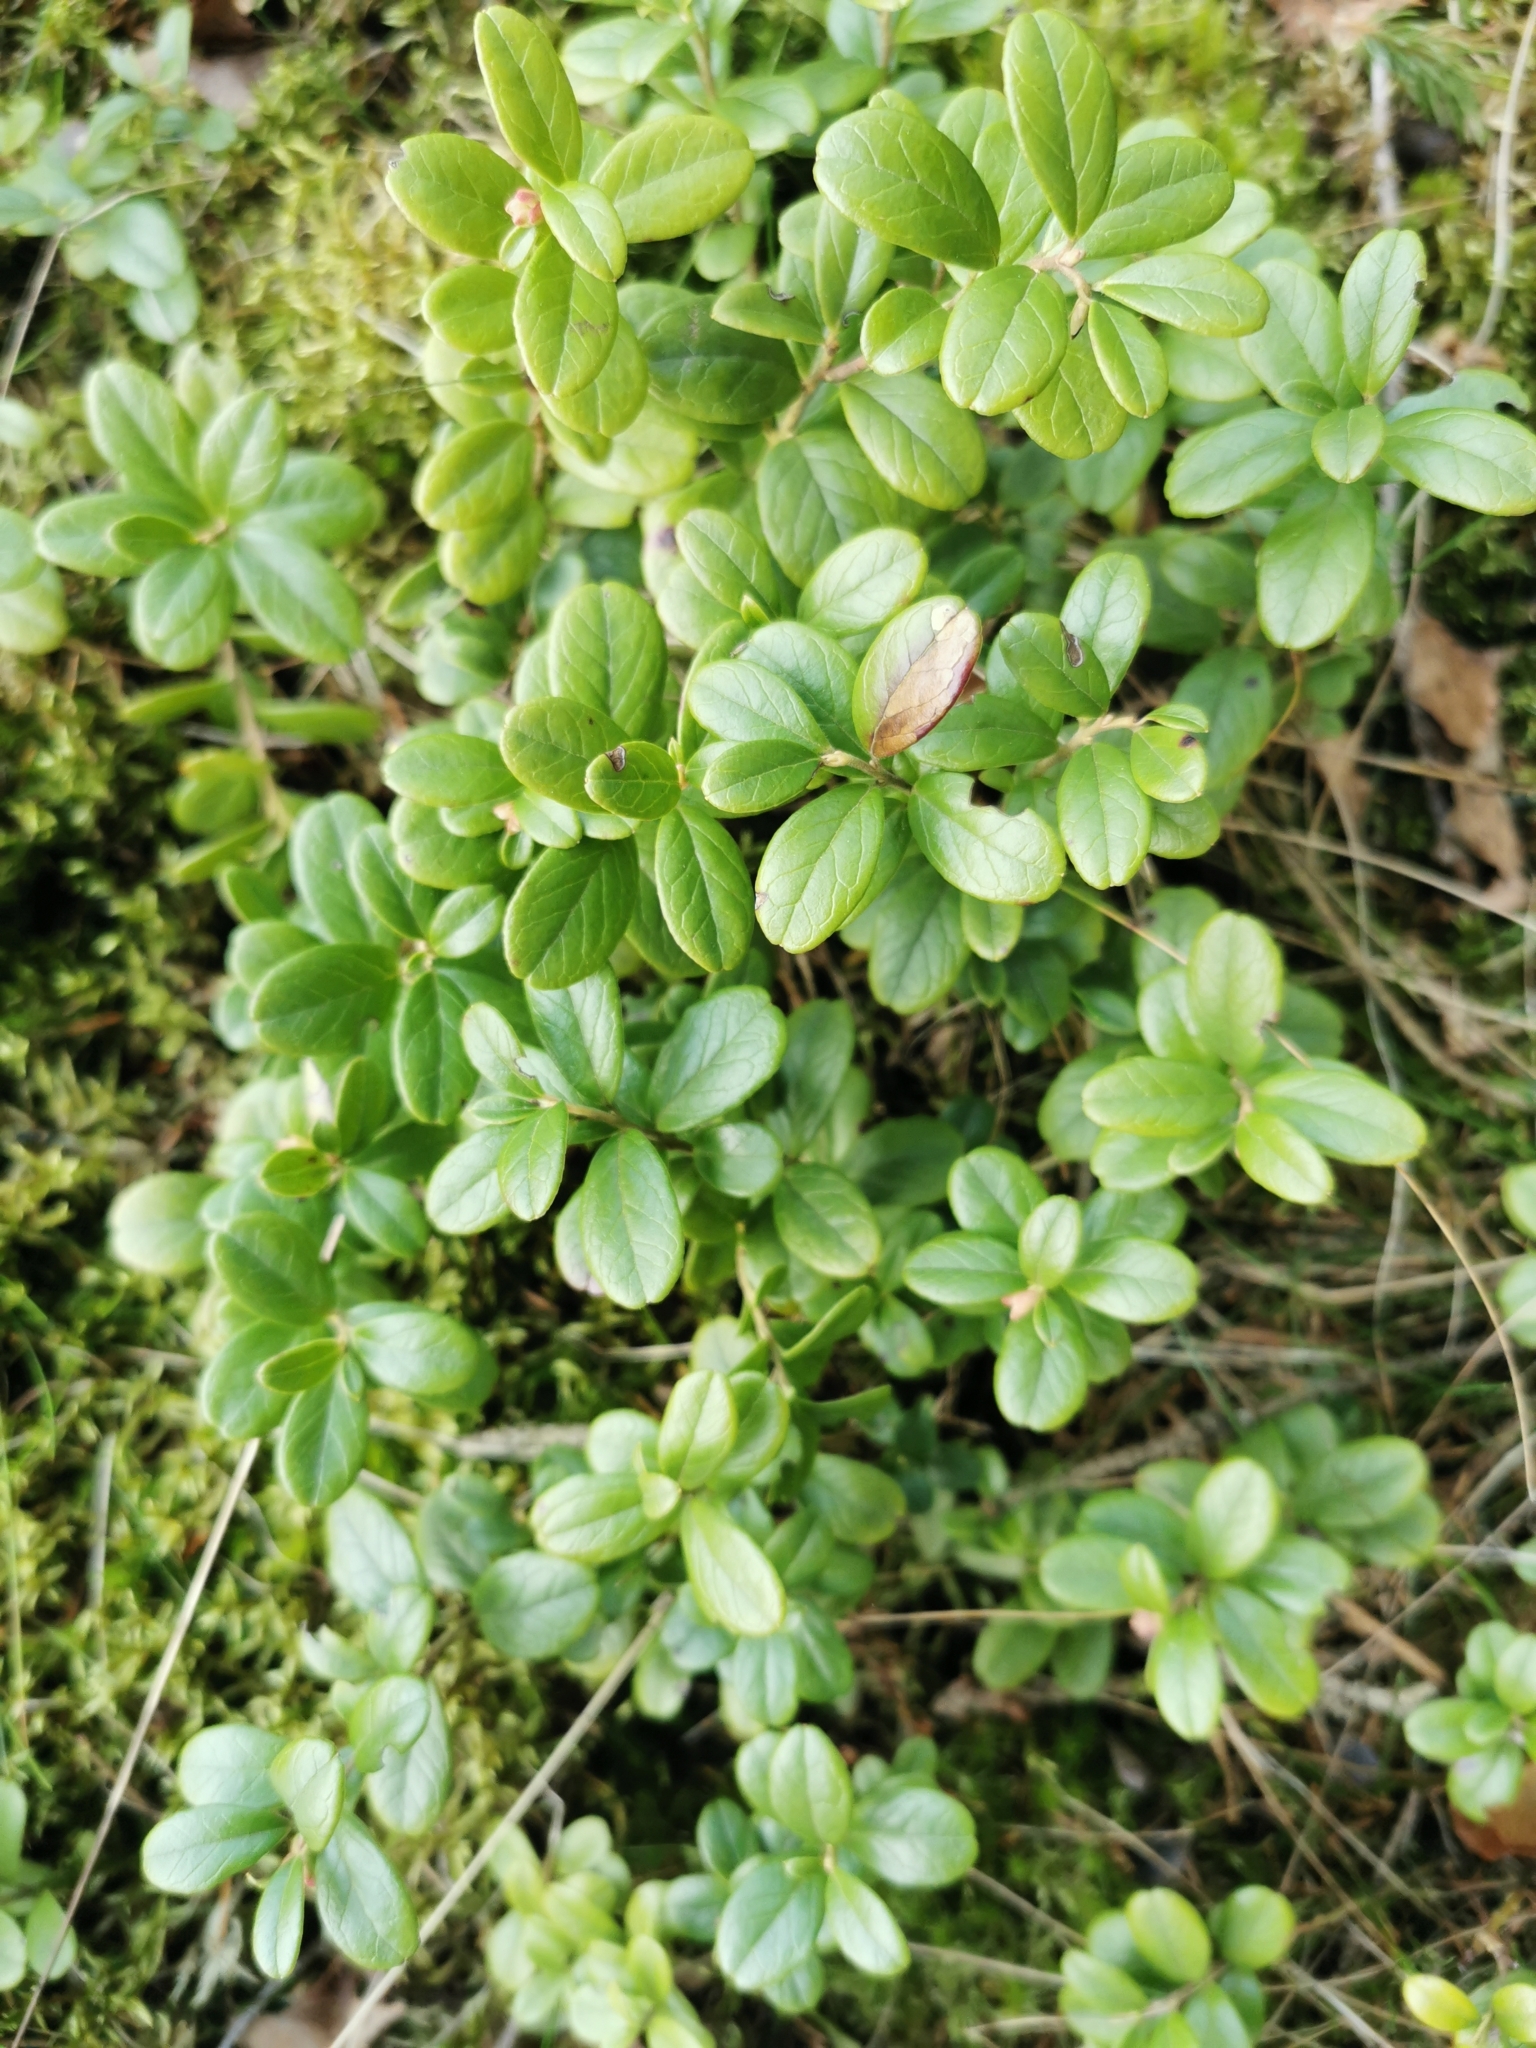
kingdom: Plantae
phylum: Tracheophyta
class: Magnoliopsida
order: Ericales
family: Ericaceae
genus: Vaccinium
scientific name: Vaccinium vitis-idaea
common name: Cowberry
